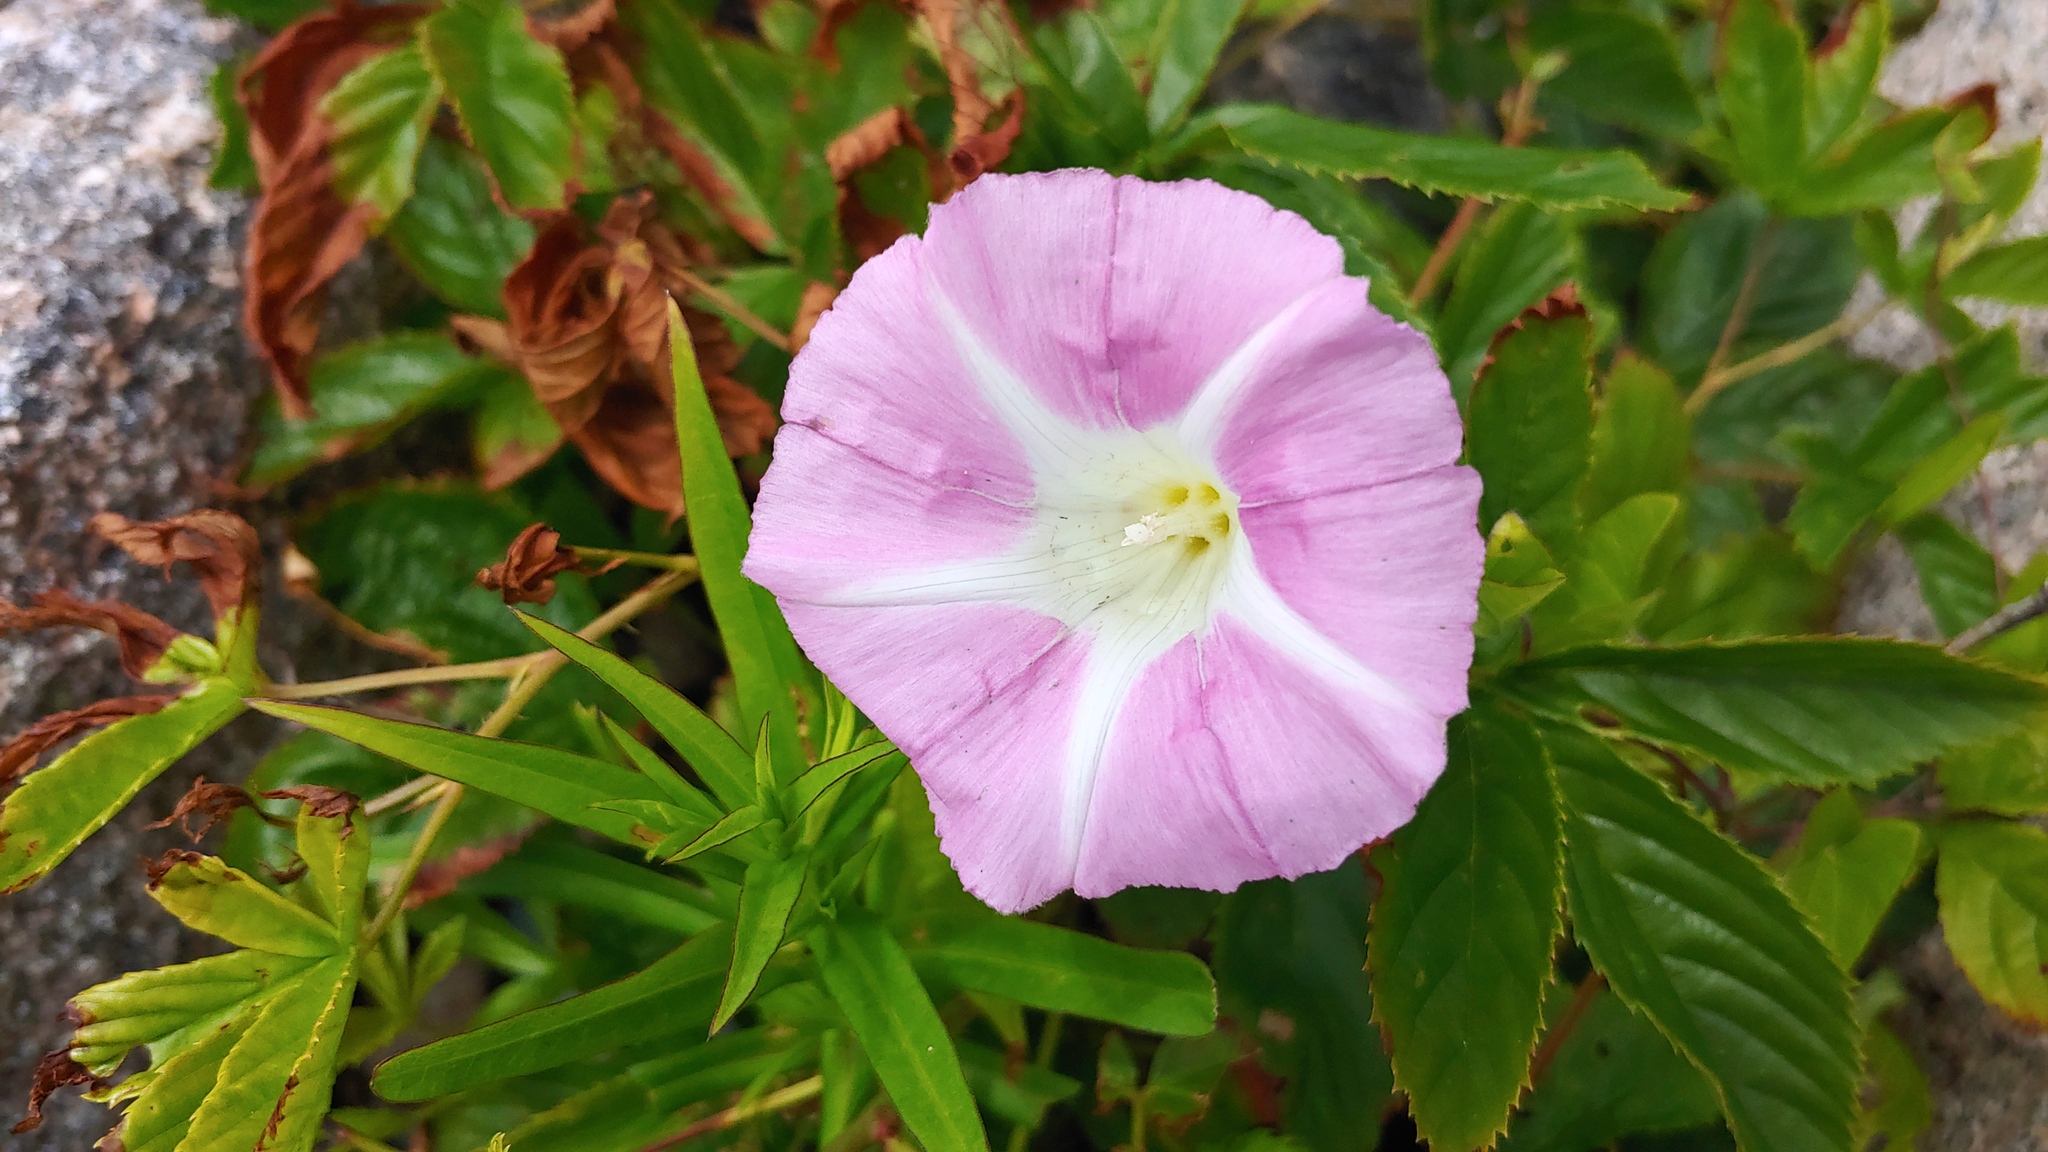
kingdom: Plantae
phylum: Tracheophyta
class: Magnoliopsida
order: Solanales
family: Convolvulaceae
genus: Calystegia
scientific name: Calystegia sepium
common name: Hedge bindweed
